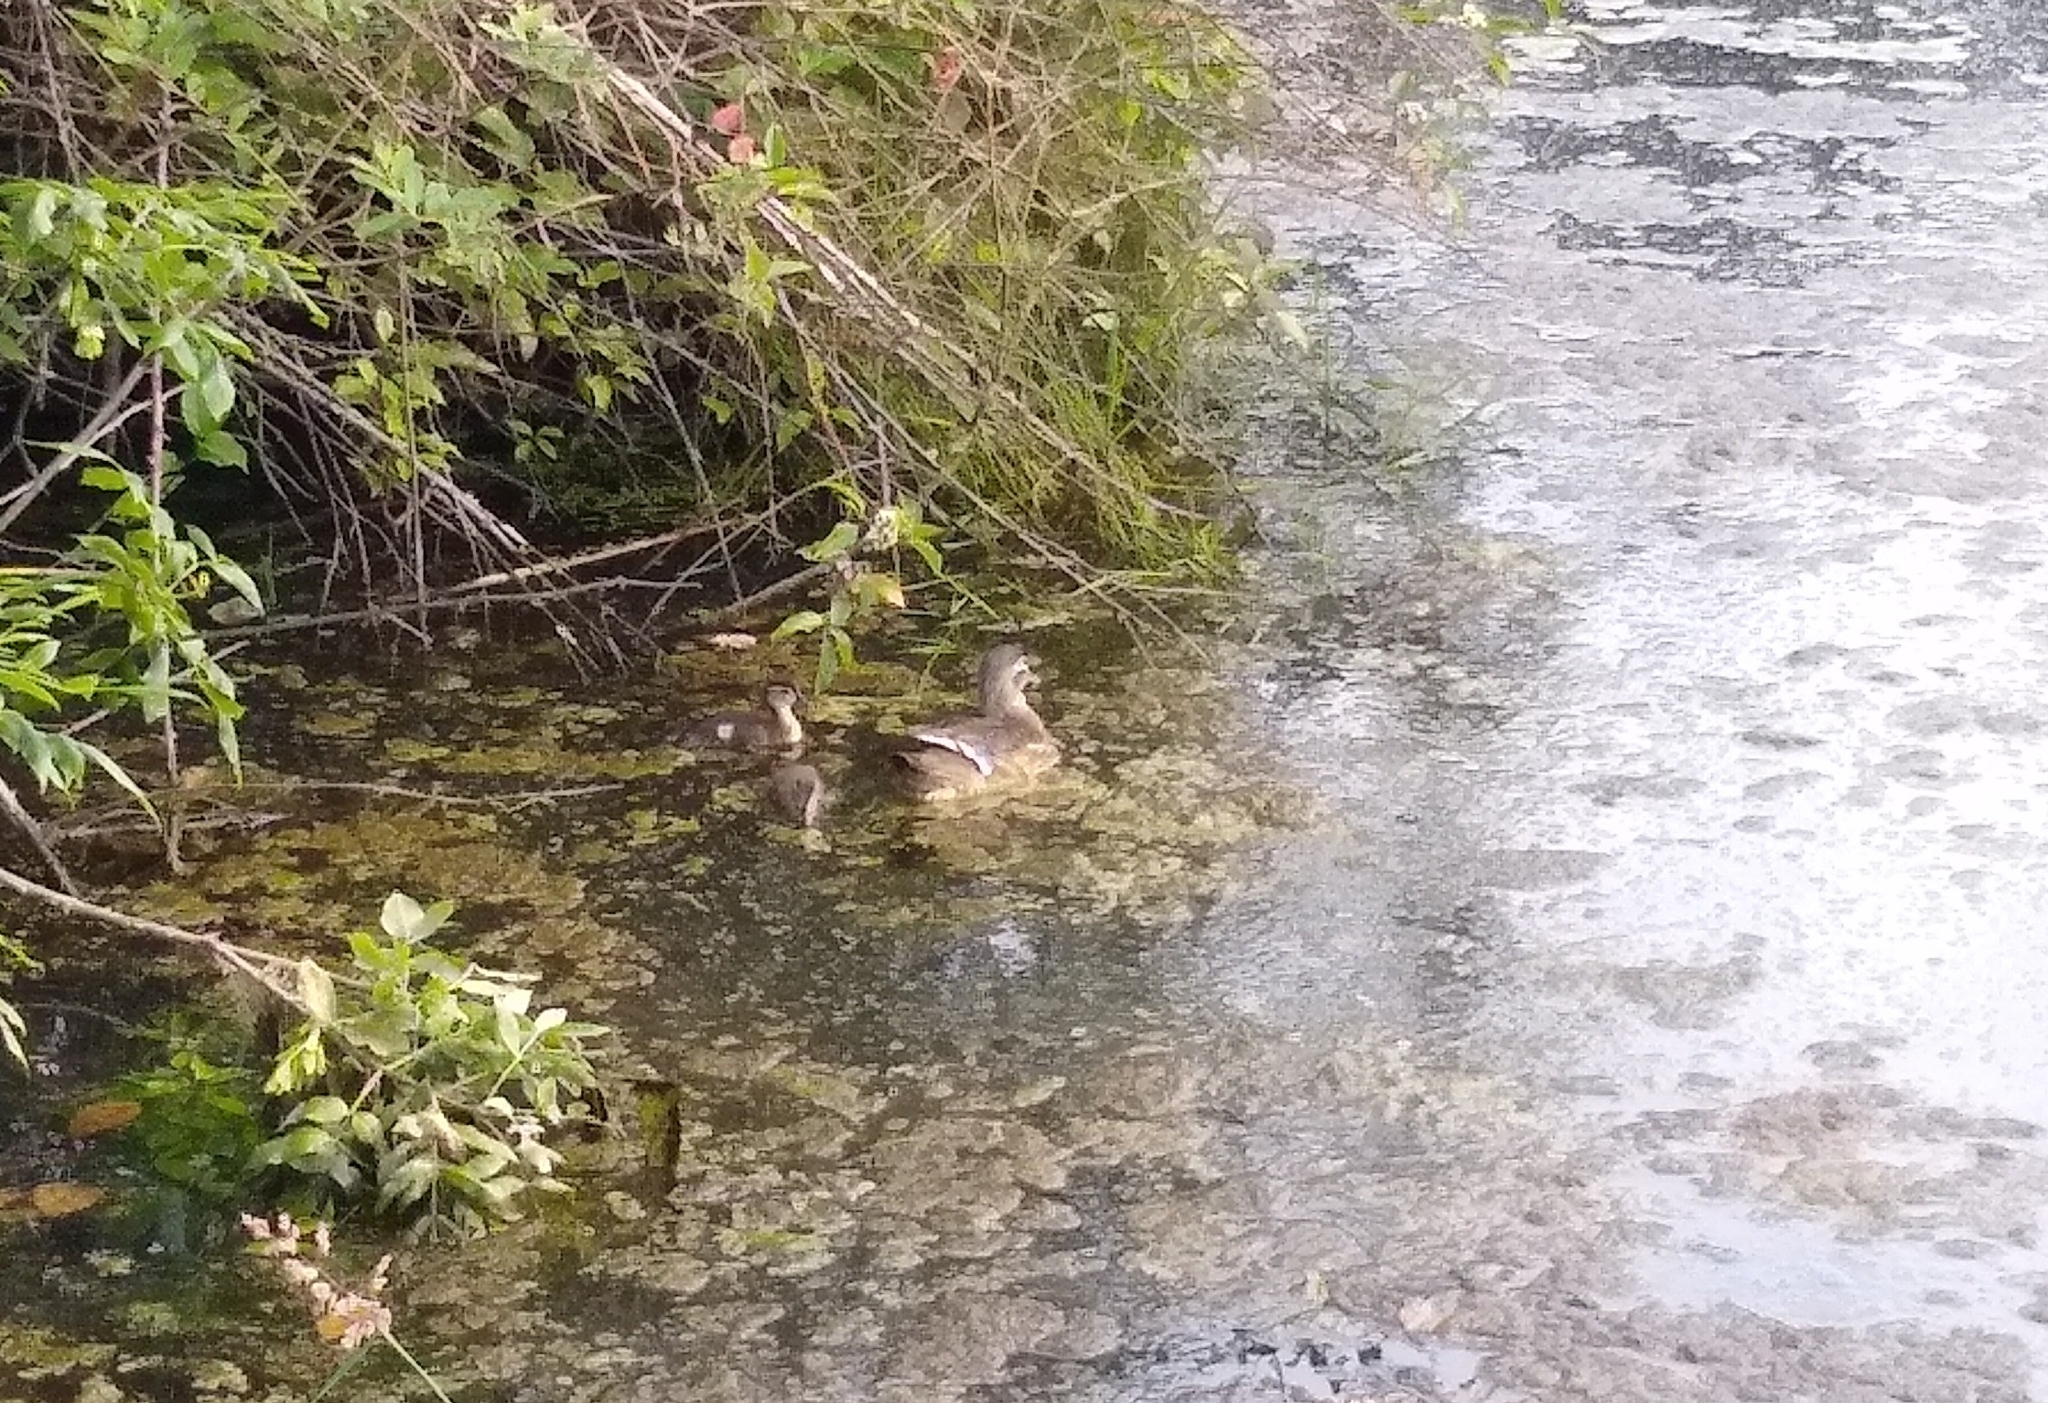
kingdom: Animalia
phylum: Chordata
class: Aves
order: Anseriformes
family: Anatidae
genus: Aix
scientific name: Aix sponsa
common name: Wood duck
